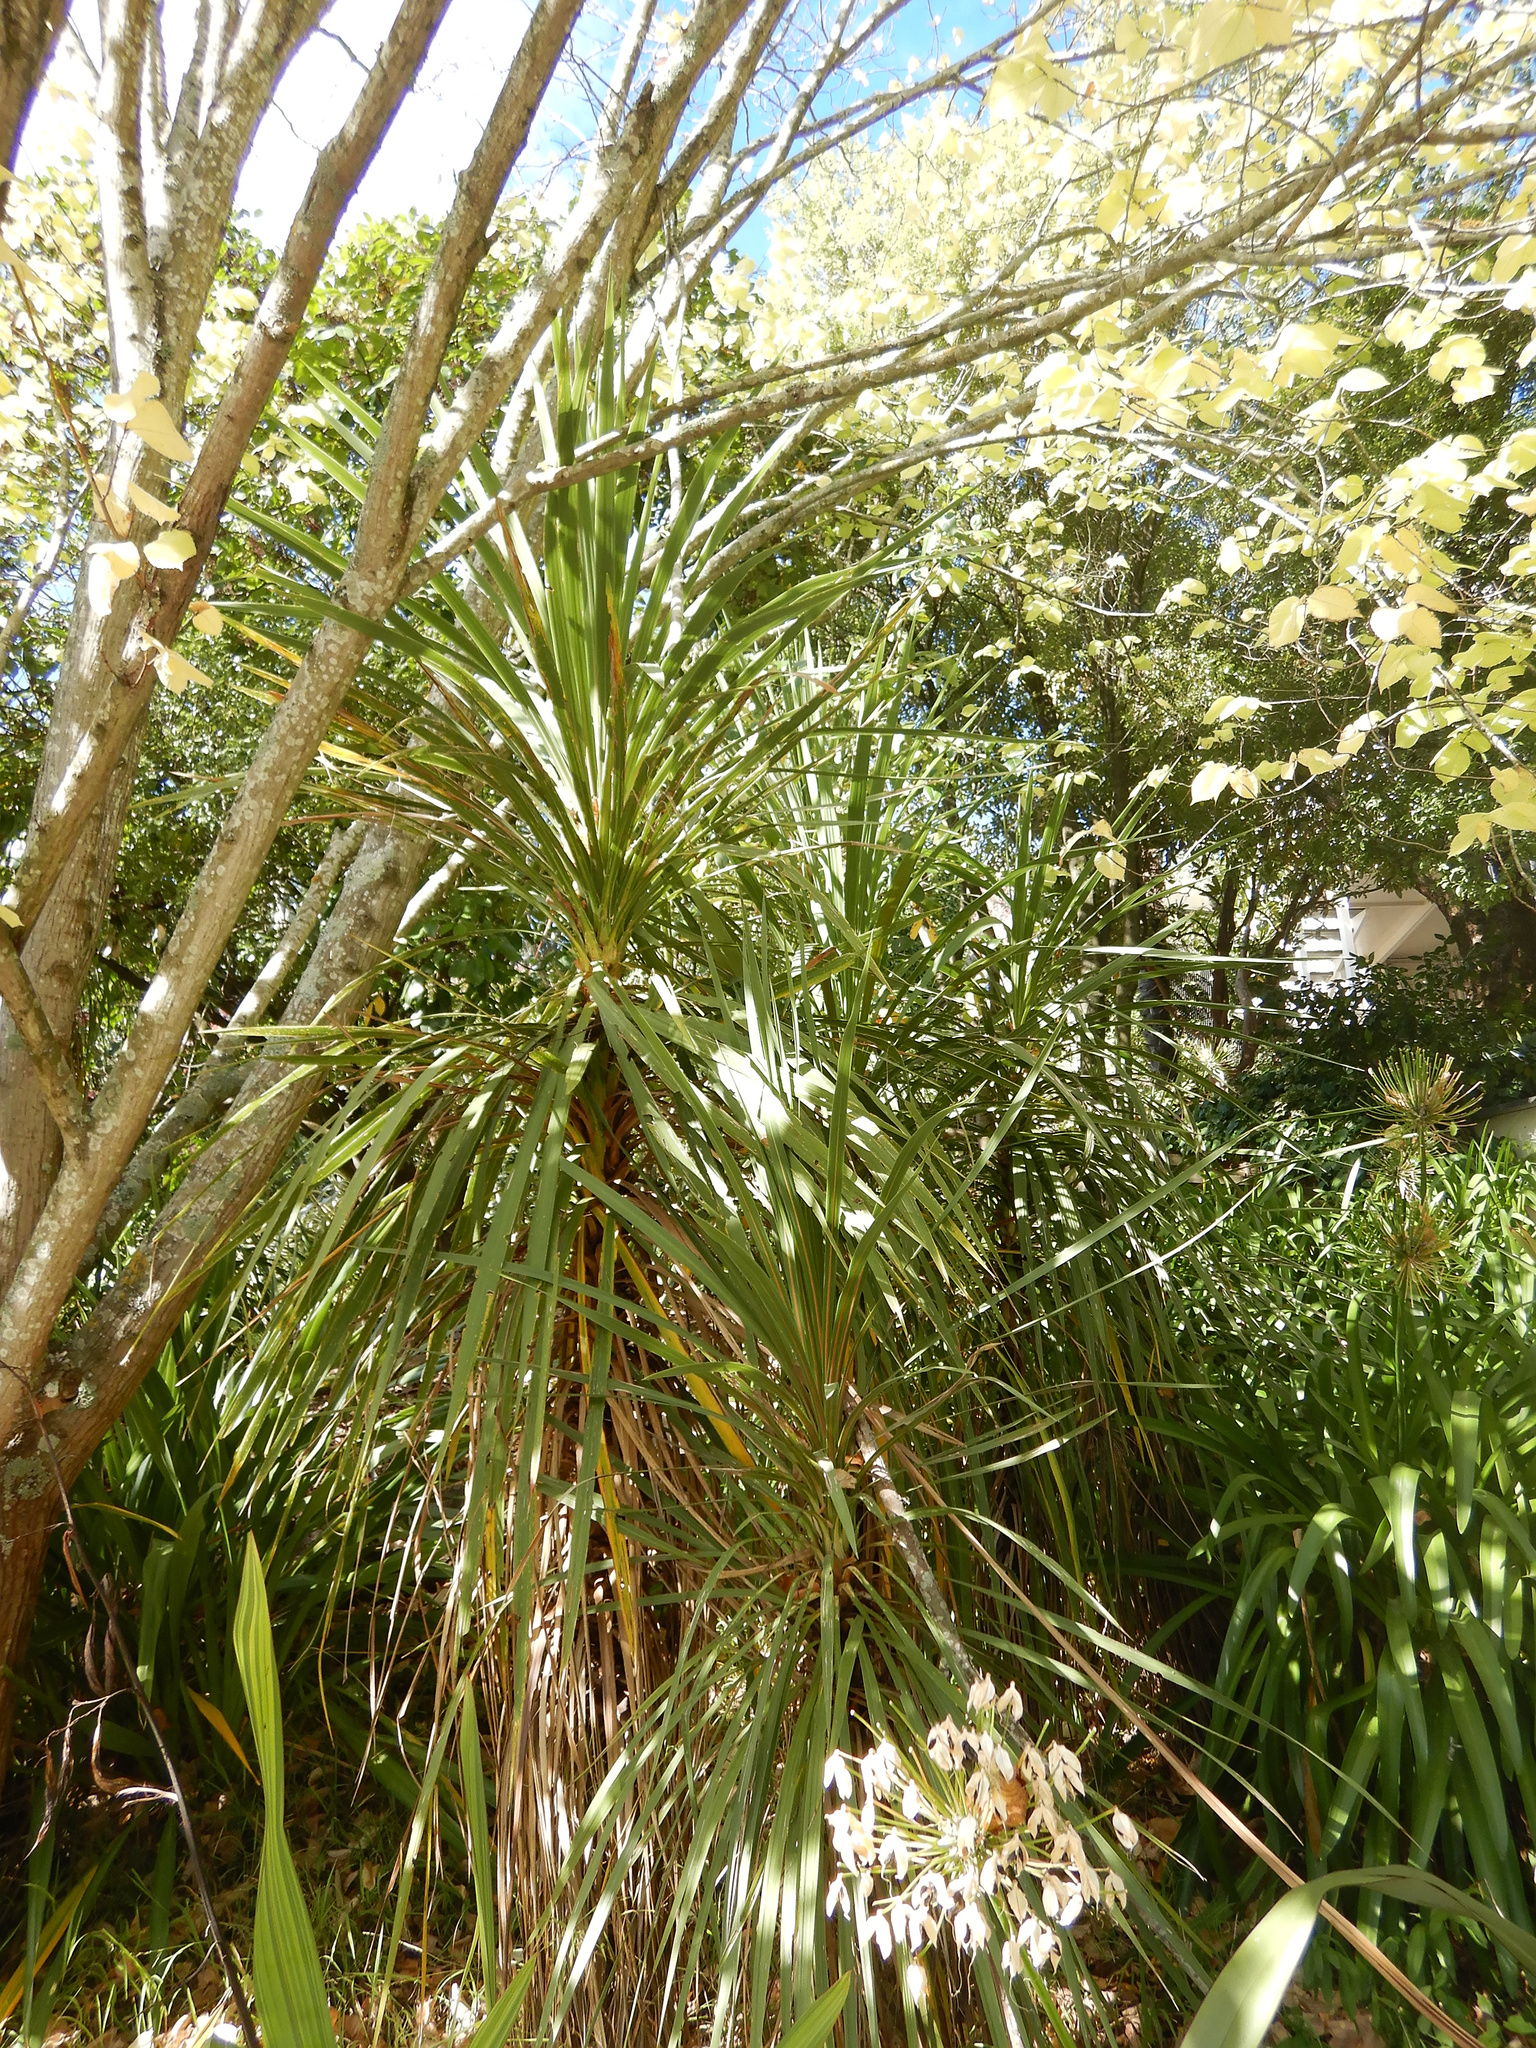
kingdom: Plantae
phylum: Tracheophyta
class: Liliopsida
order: Asparagales
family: Asparagaceae
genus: Cordyline
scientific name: Cordyline australis
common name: Cabbage-palm
